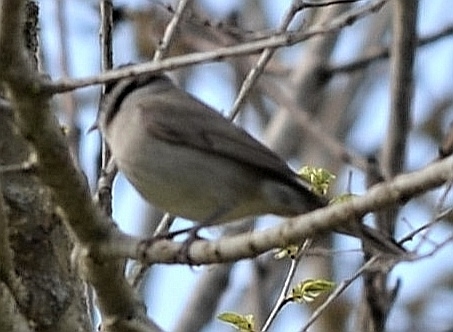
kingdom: Animalia
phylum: Chordata
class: Aves
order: Passeriformes
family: Sylviidae
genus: Sylvia
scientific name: Sylvia atricapilla
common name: Eurasian blackcap
